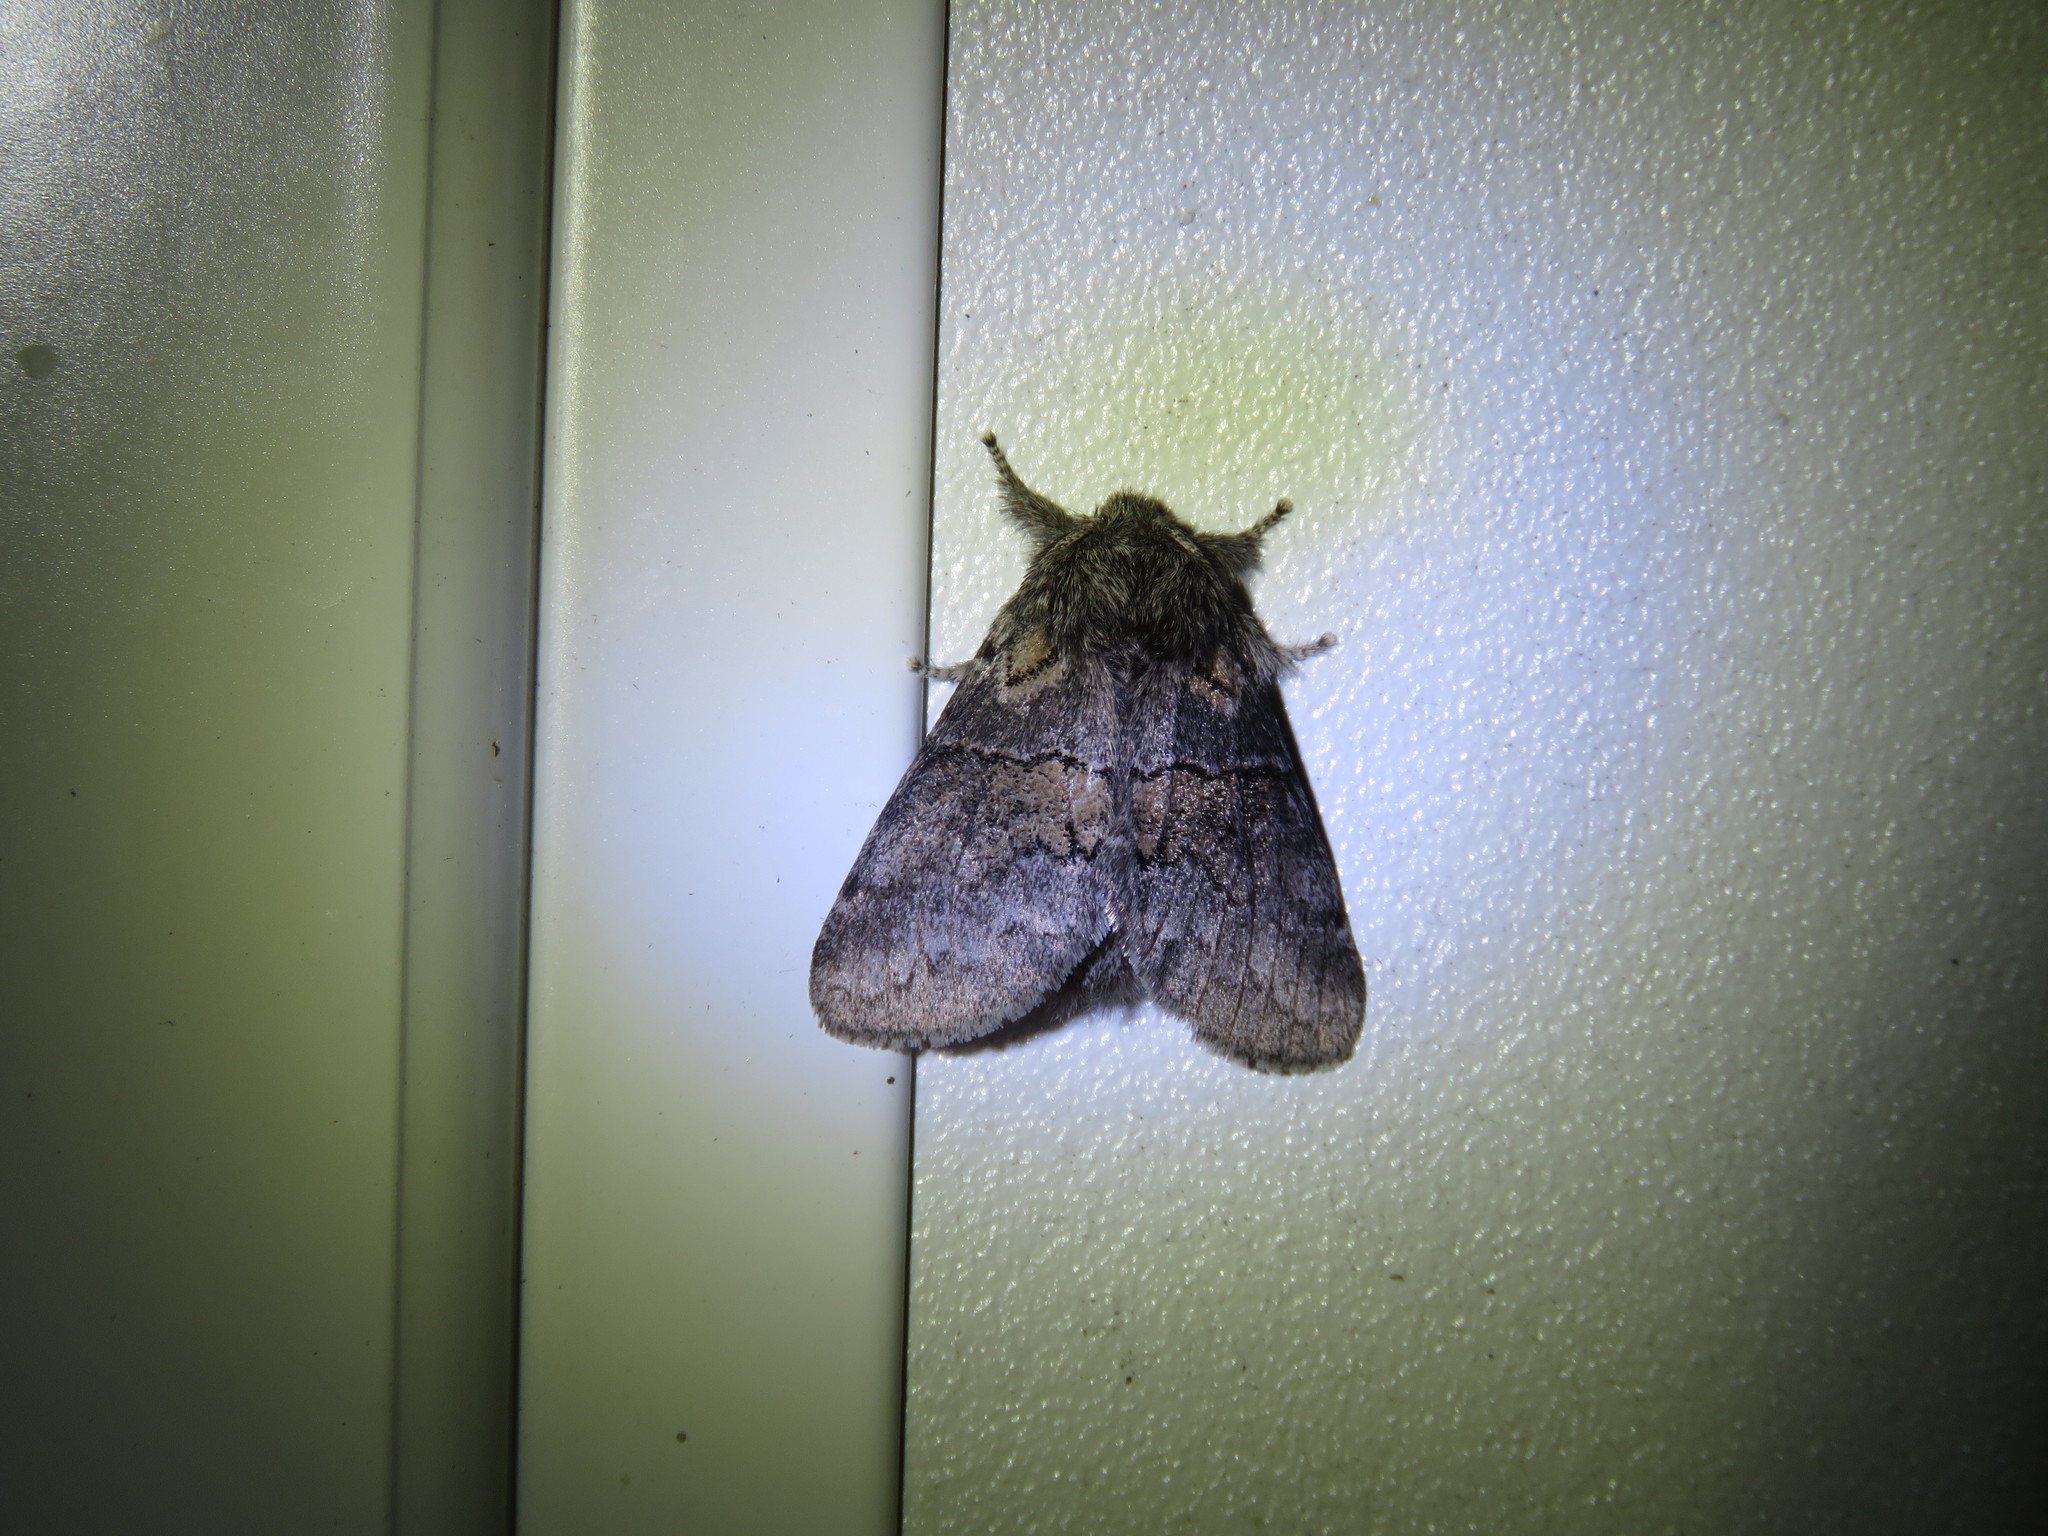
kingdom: Animalia
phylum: Arthropoda
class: Insecta
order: Lepidoptera
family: Notodontidae
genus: Gluphisia
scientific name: Gluphisia septentrionis
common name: Common gluphisia
